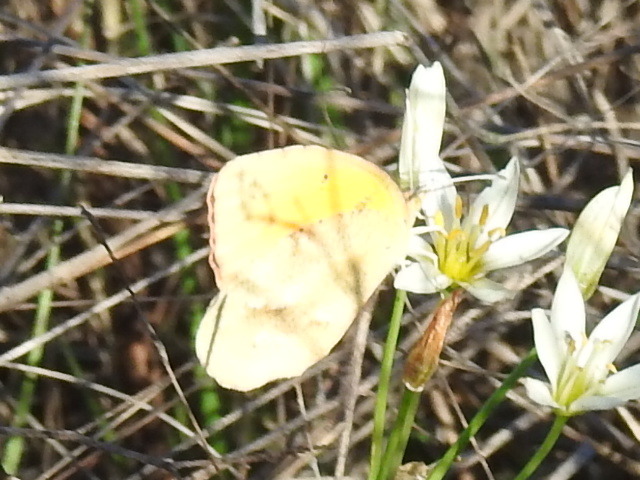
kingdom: Animalia
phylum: Arthropoda
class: Insecta
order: Lepidoptera
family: Pieridae
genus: Abaeis
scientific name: Abaeis nicippe
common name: Sleepy orange
